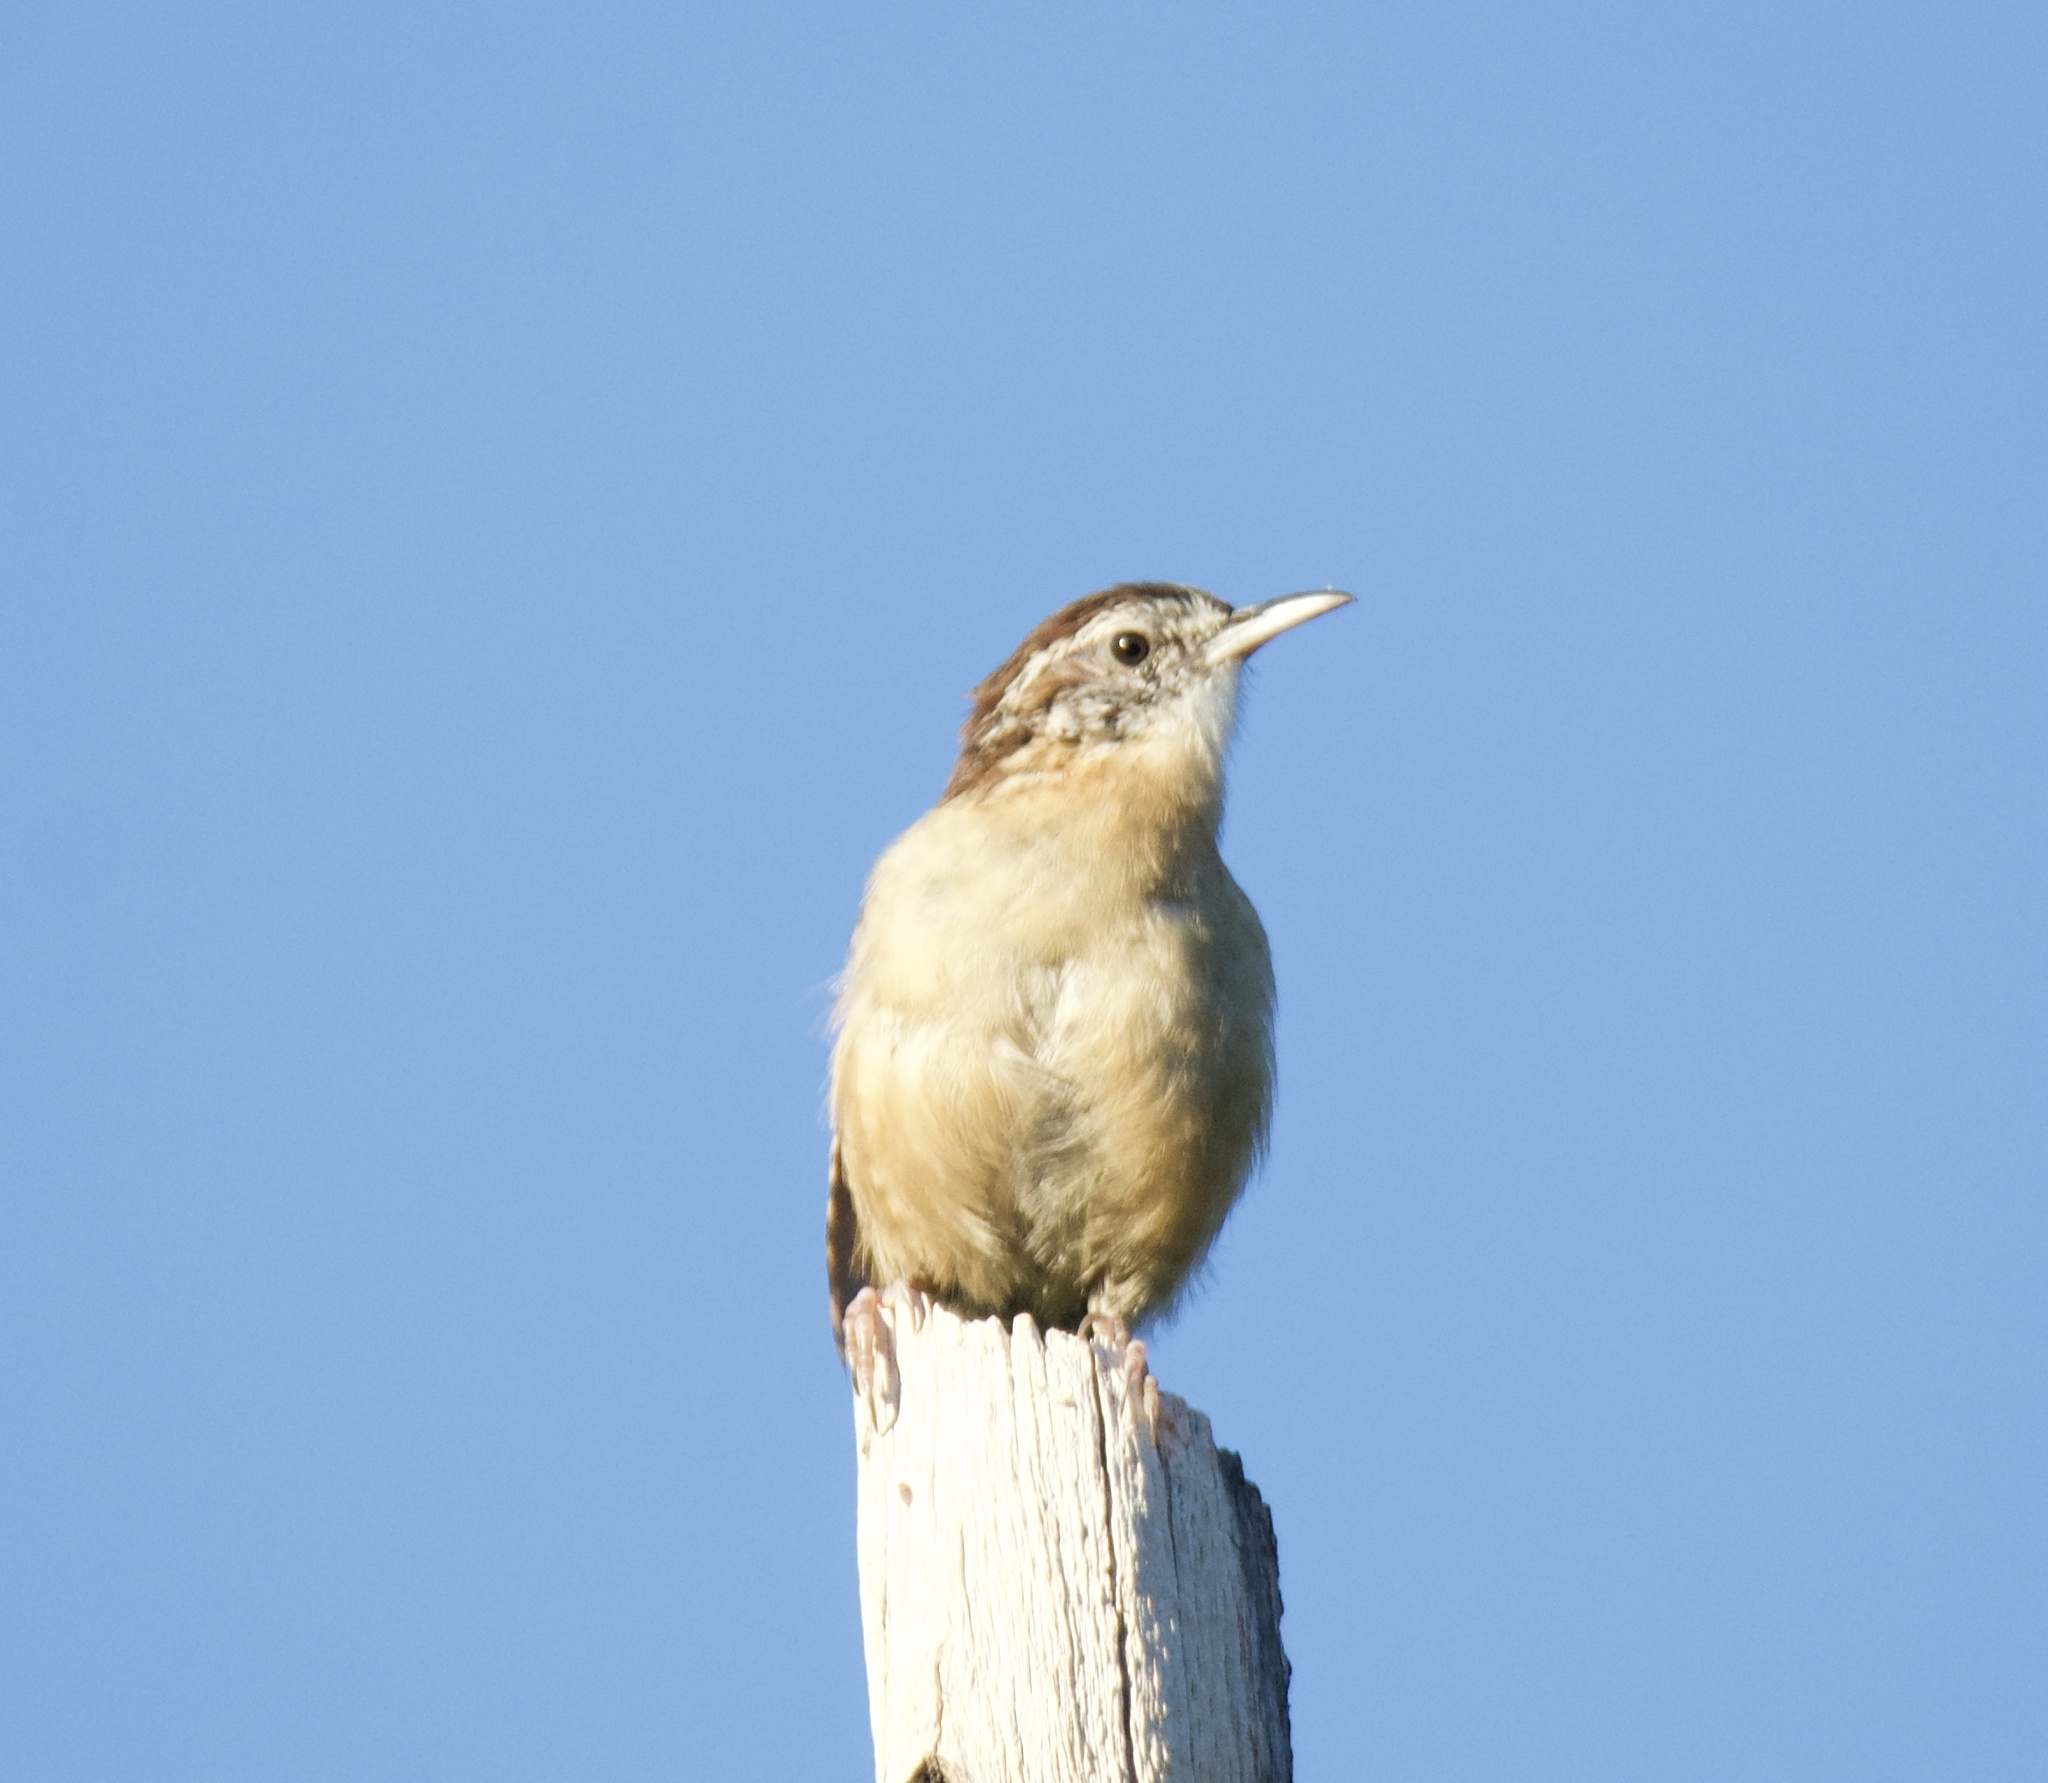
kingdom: Animalia
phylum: Chordata
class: Aves
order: Passeriformes
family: Troglodytidae
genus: Thryothorus
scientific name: Thryothorus ludovicianus
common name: Carolina wren
